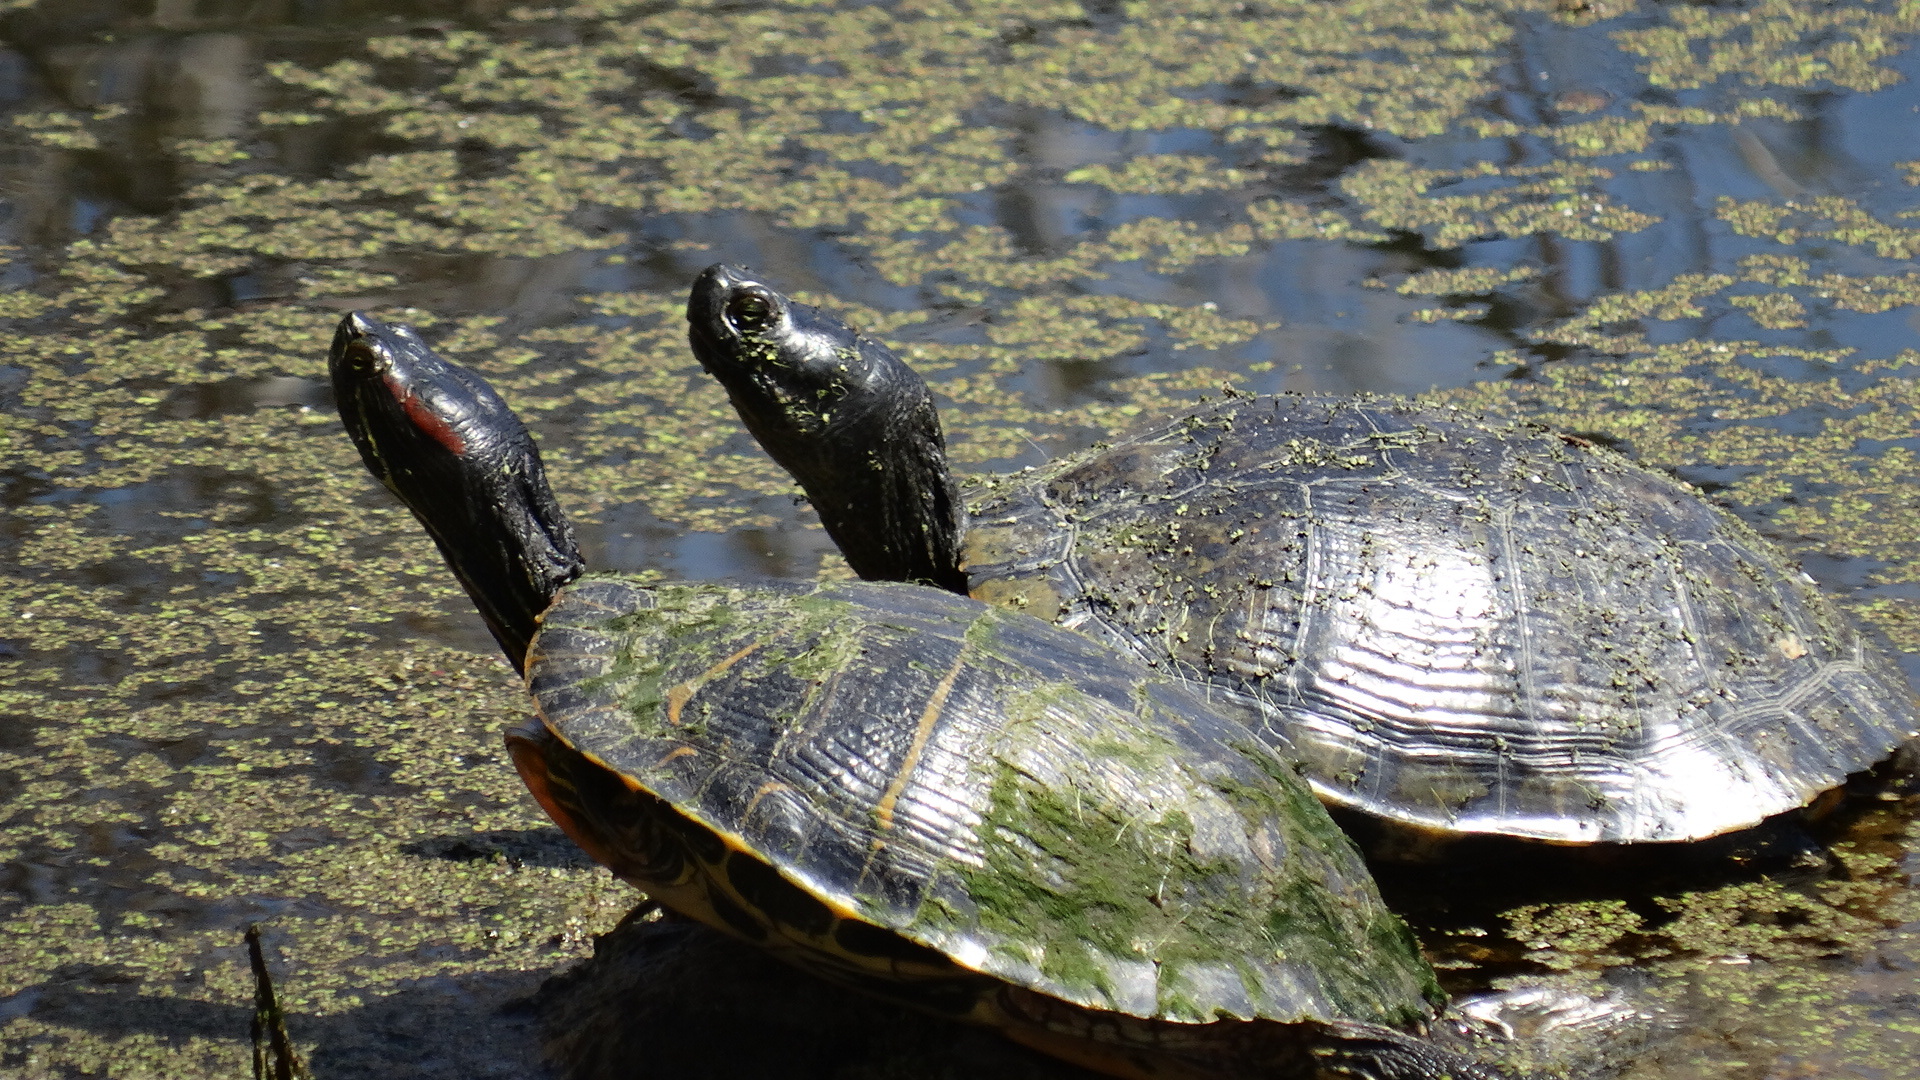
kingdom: Animalia
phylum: Chordata
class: Testudines
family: Emydidae
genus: Trachemys
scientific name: Trachemys scripta
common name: Slider
